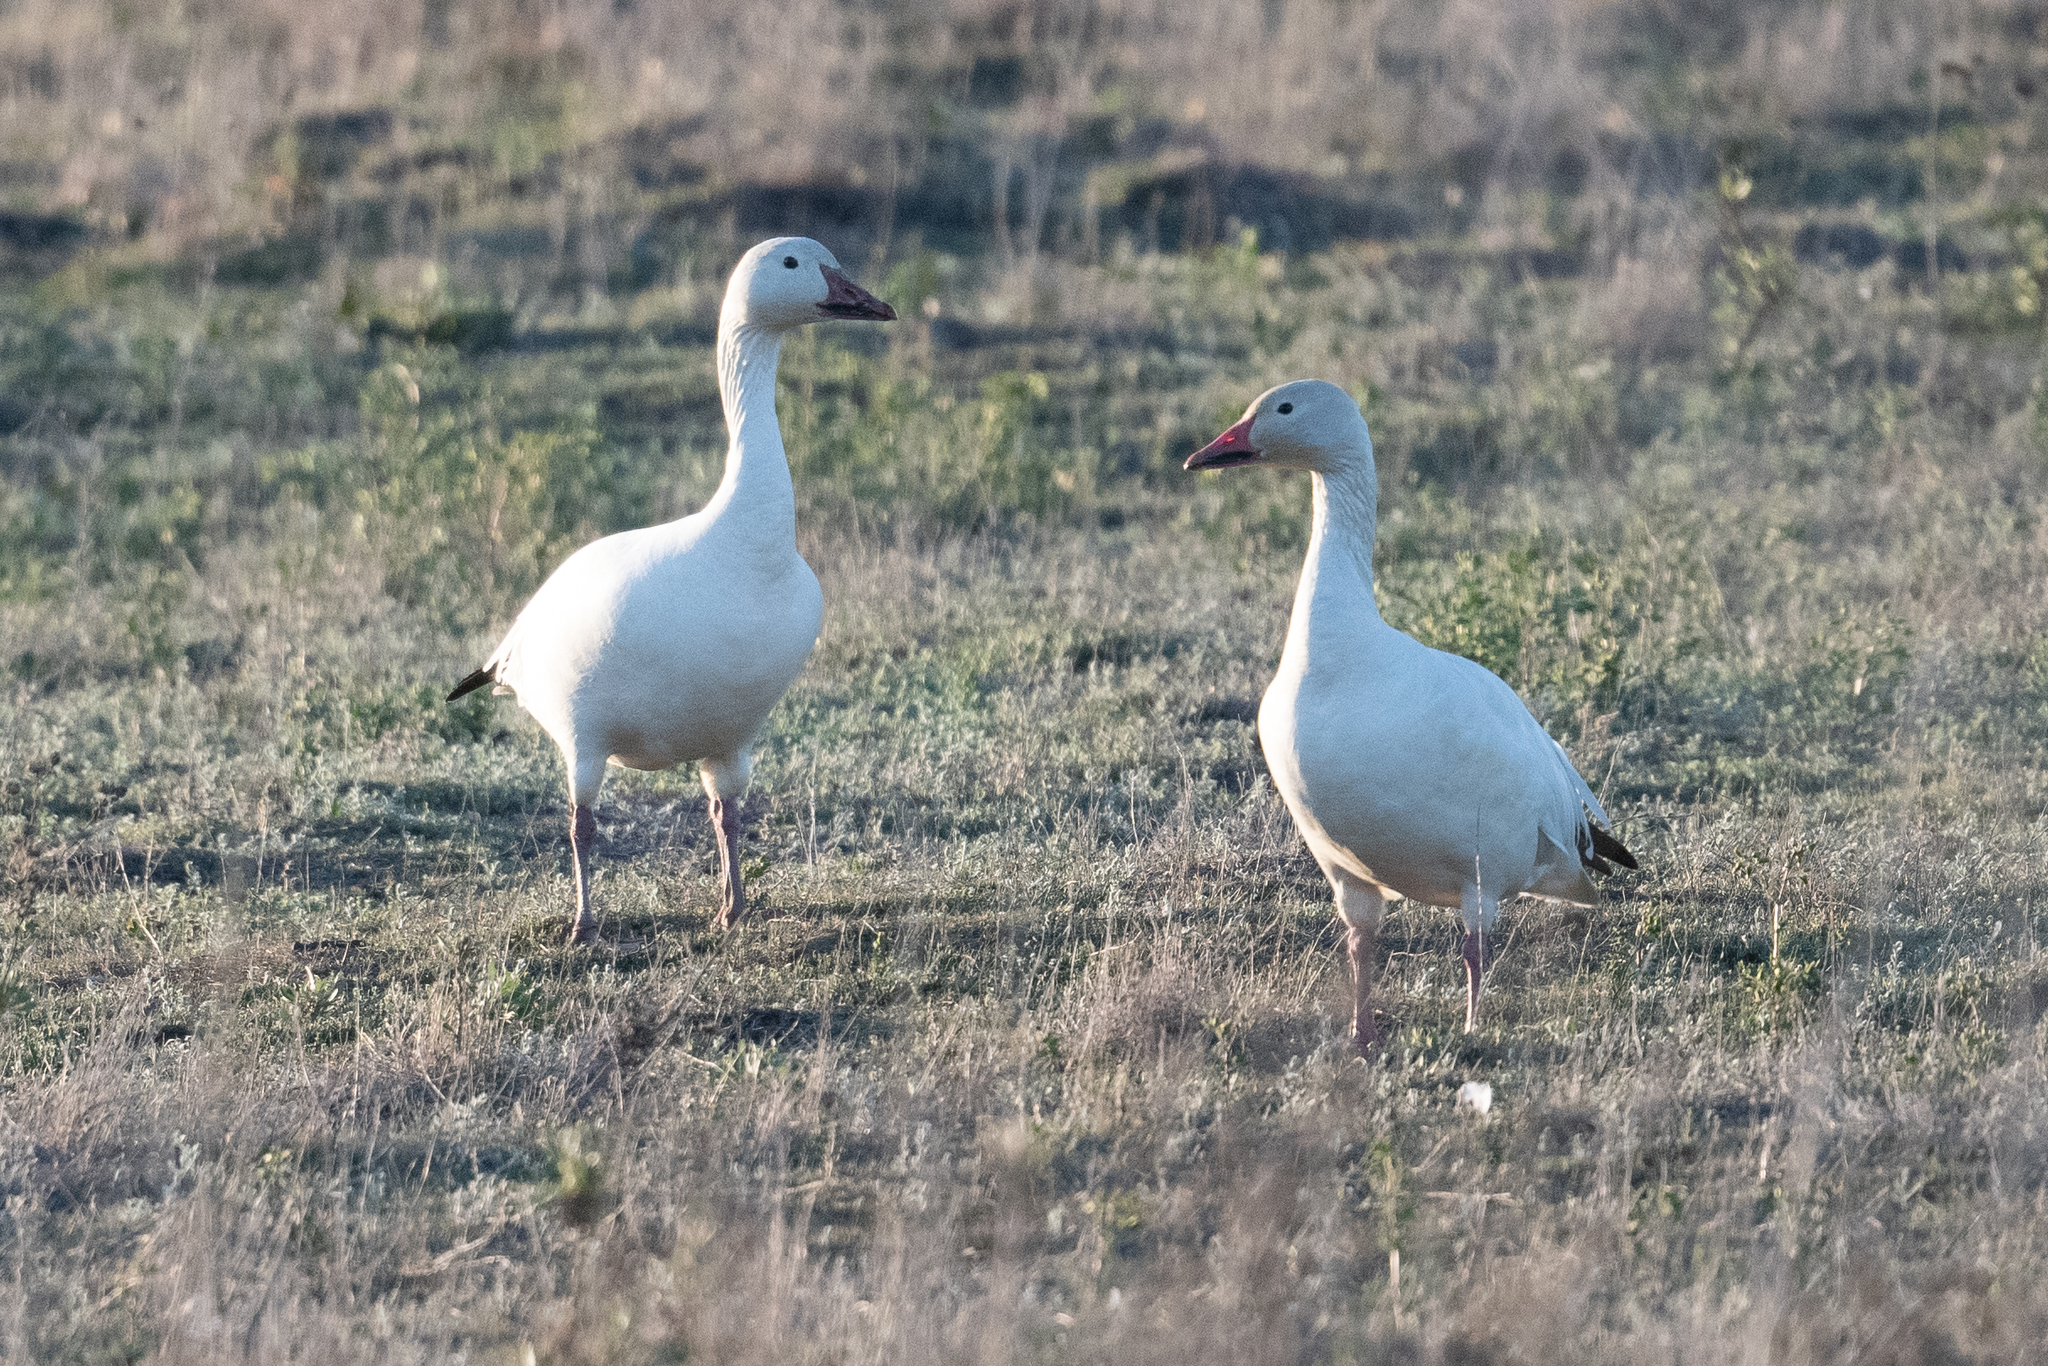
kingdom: Animalia
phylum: Chordata
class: Aves
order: Anseriformes
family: Anatidae
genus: Anser
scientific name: Anser caerulescens
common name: Snow goose
